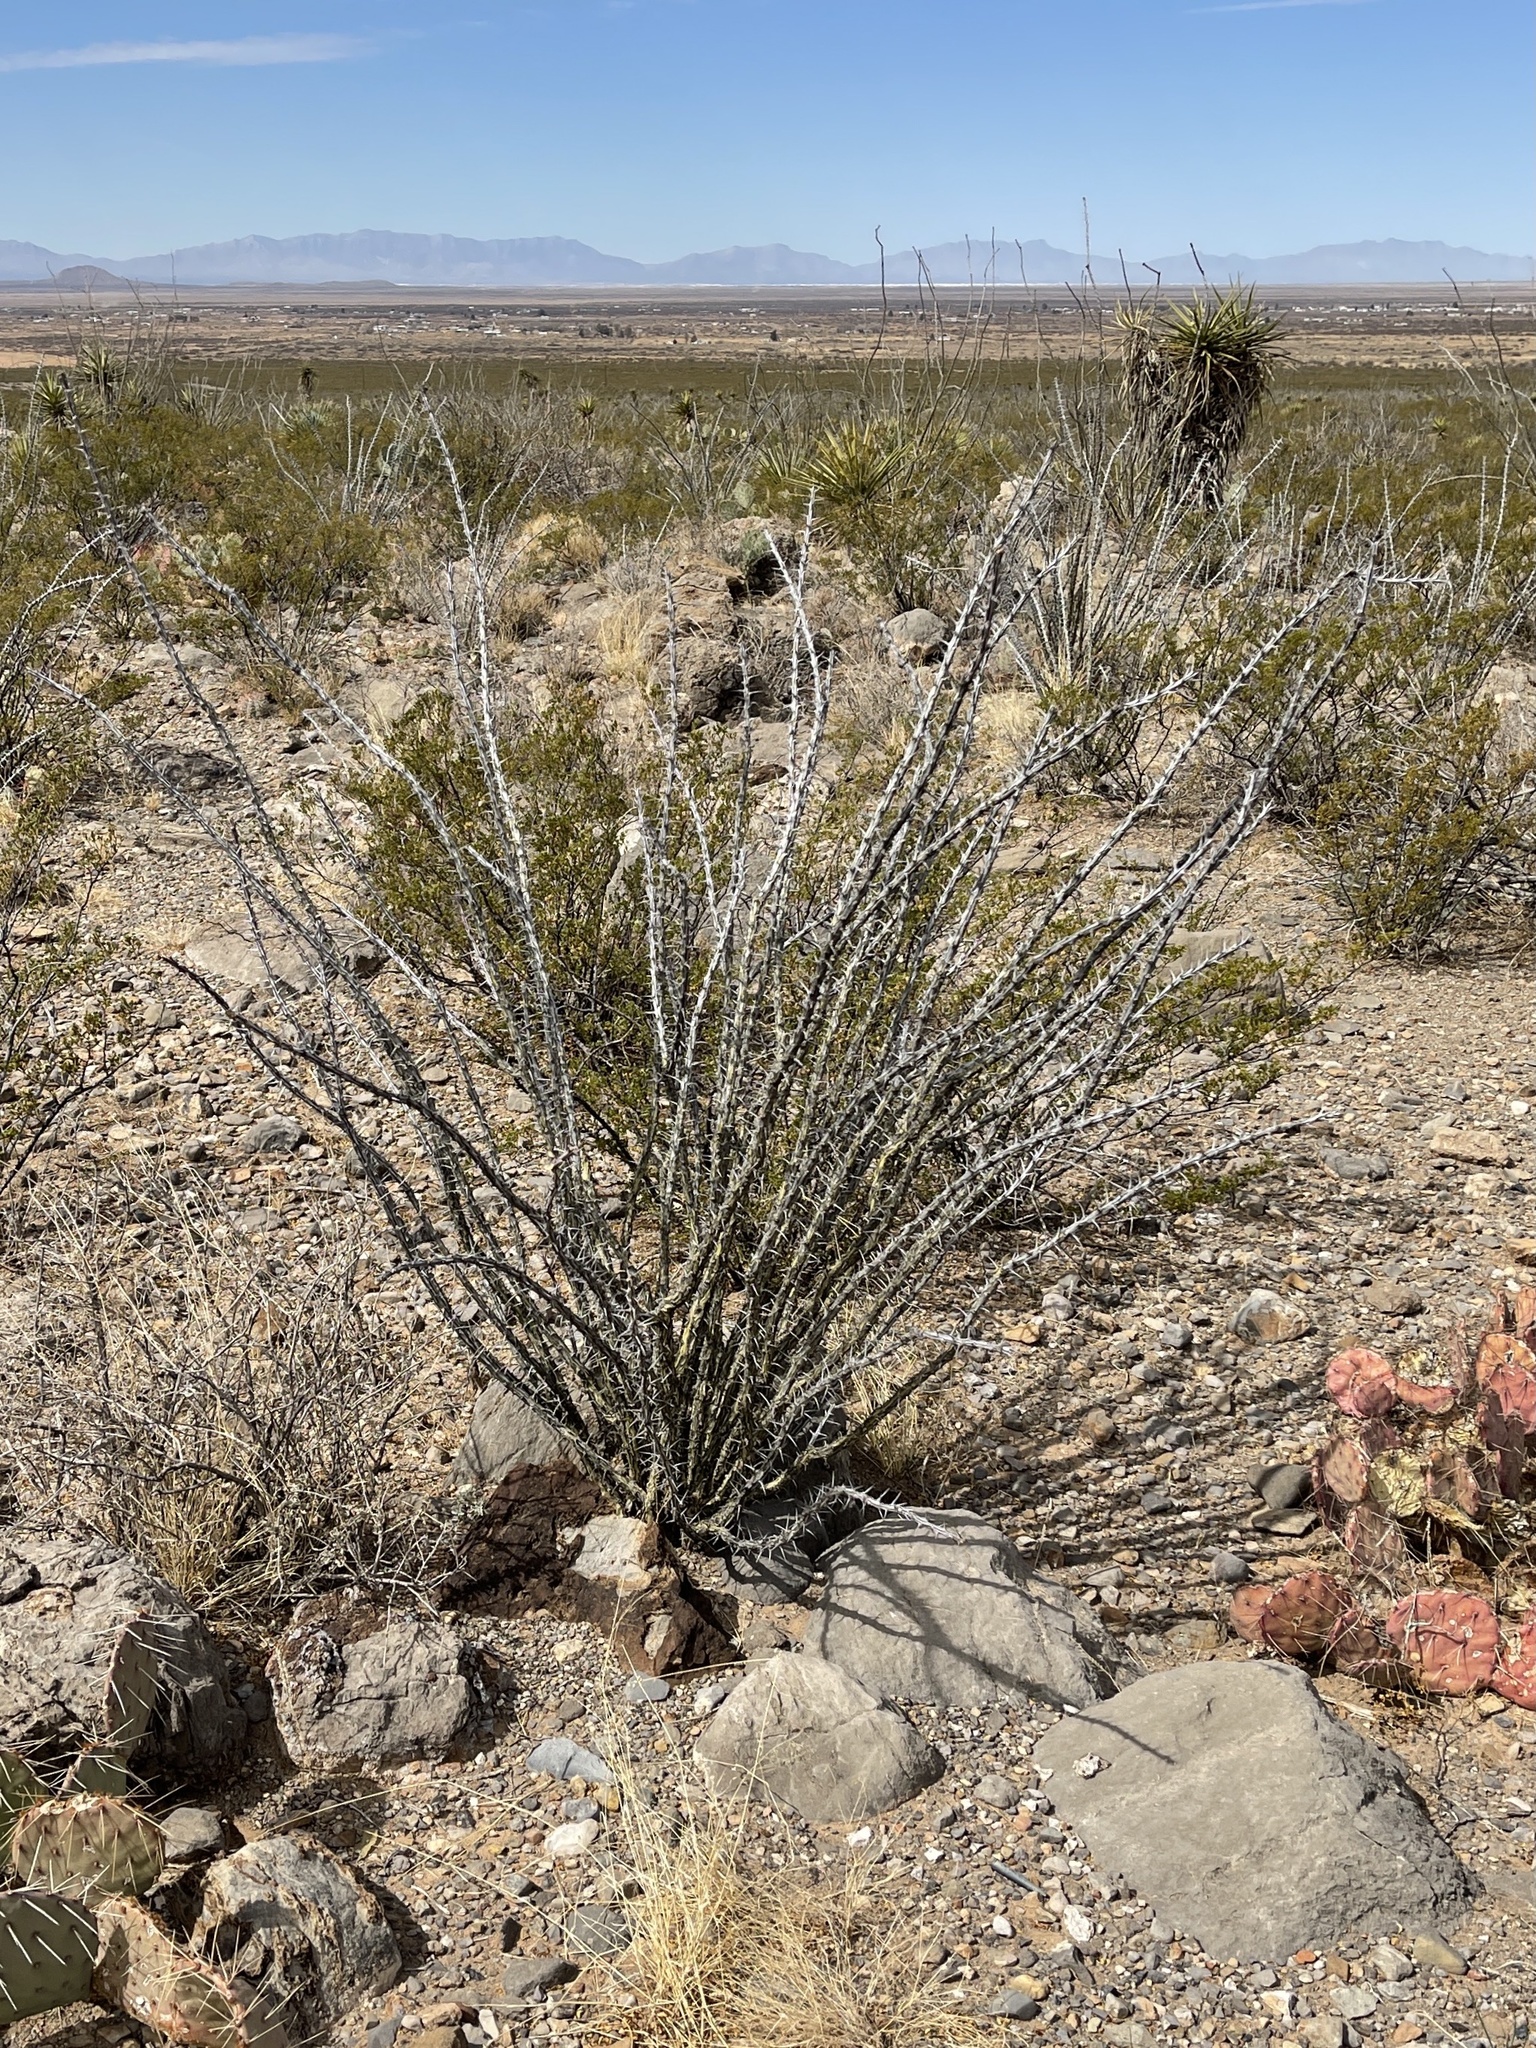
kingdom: Plantae
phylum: Tracheophyta
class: Magnoliopsida
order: Ericales
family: Fouquieriaceae
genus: Fouquieria
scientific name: Fouquieria splendens
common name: Vine-cactus
